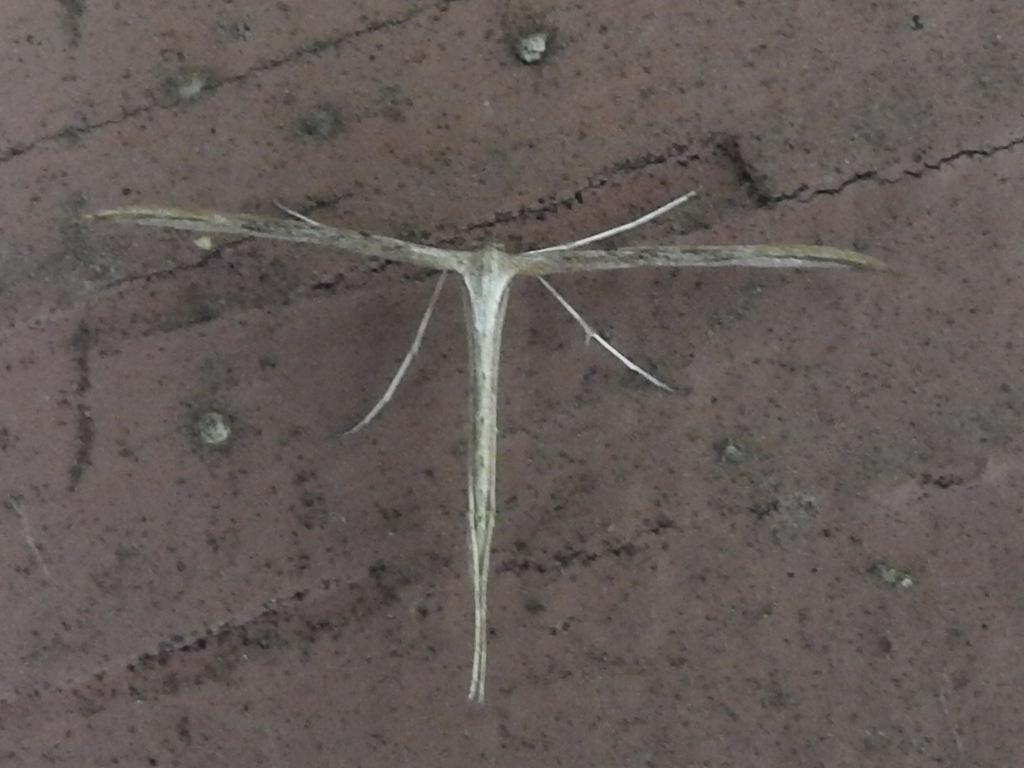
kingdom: Animalia
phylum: Arthropoda
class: Insecta
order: Lepidoptera
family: Pterophoridae
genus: Emmelina
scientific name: Emmelina monodactyla
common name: Common plume
